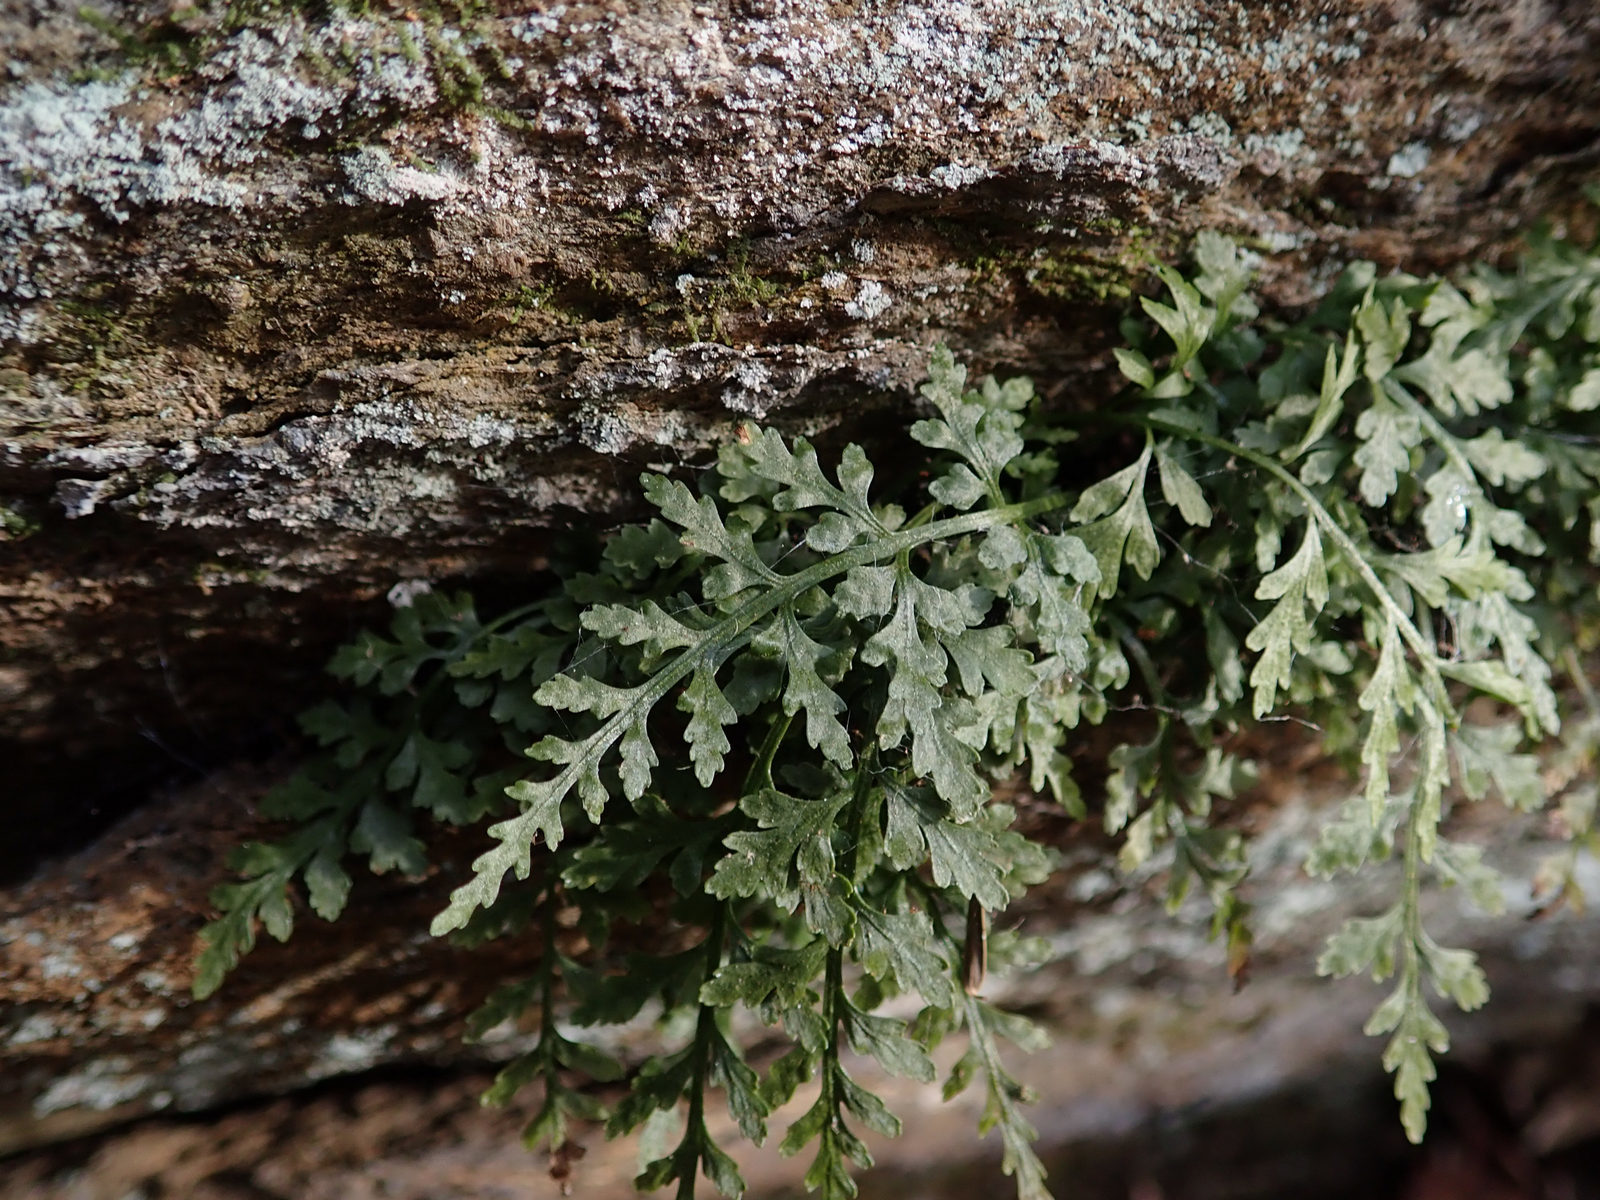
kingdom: Plantae
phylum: Tracheophyta
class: Polypodiopsida
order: Polypodiales
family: Aspleniaceae
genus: Asplenium
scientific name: Asplenium montanum
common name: Mountain spleenwort
